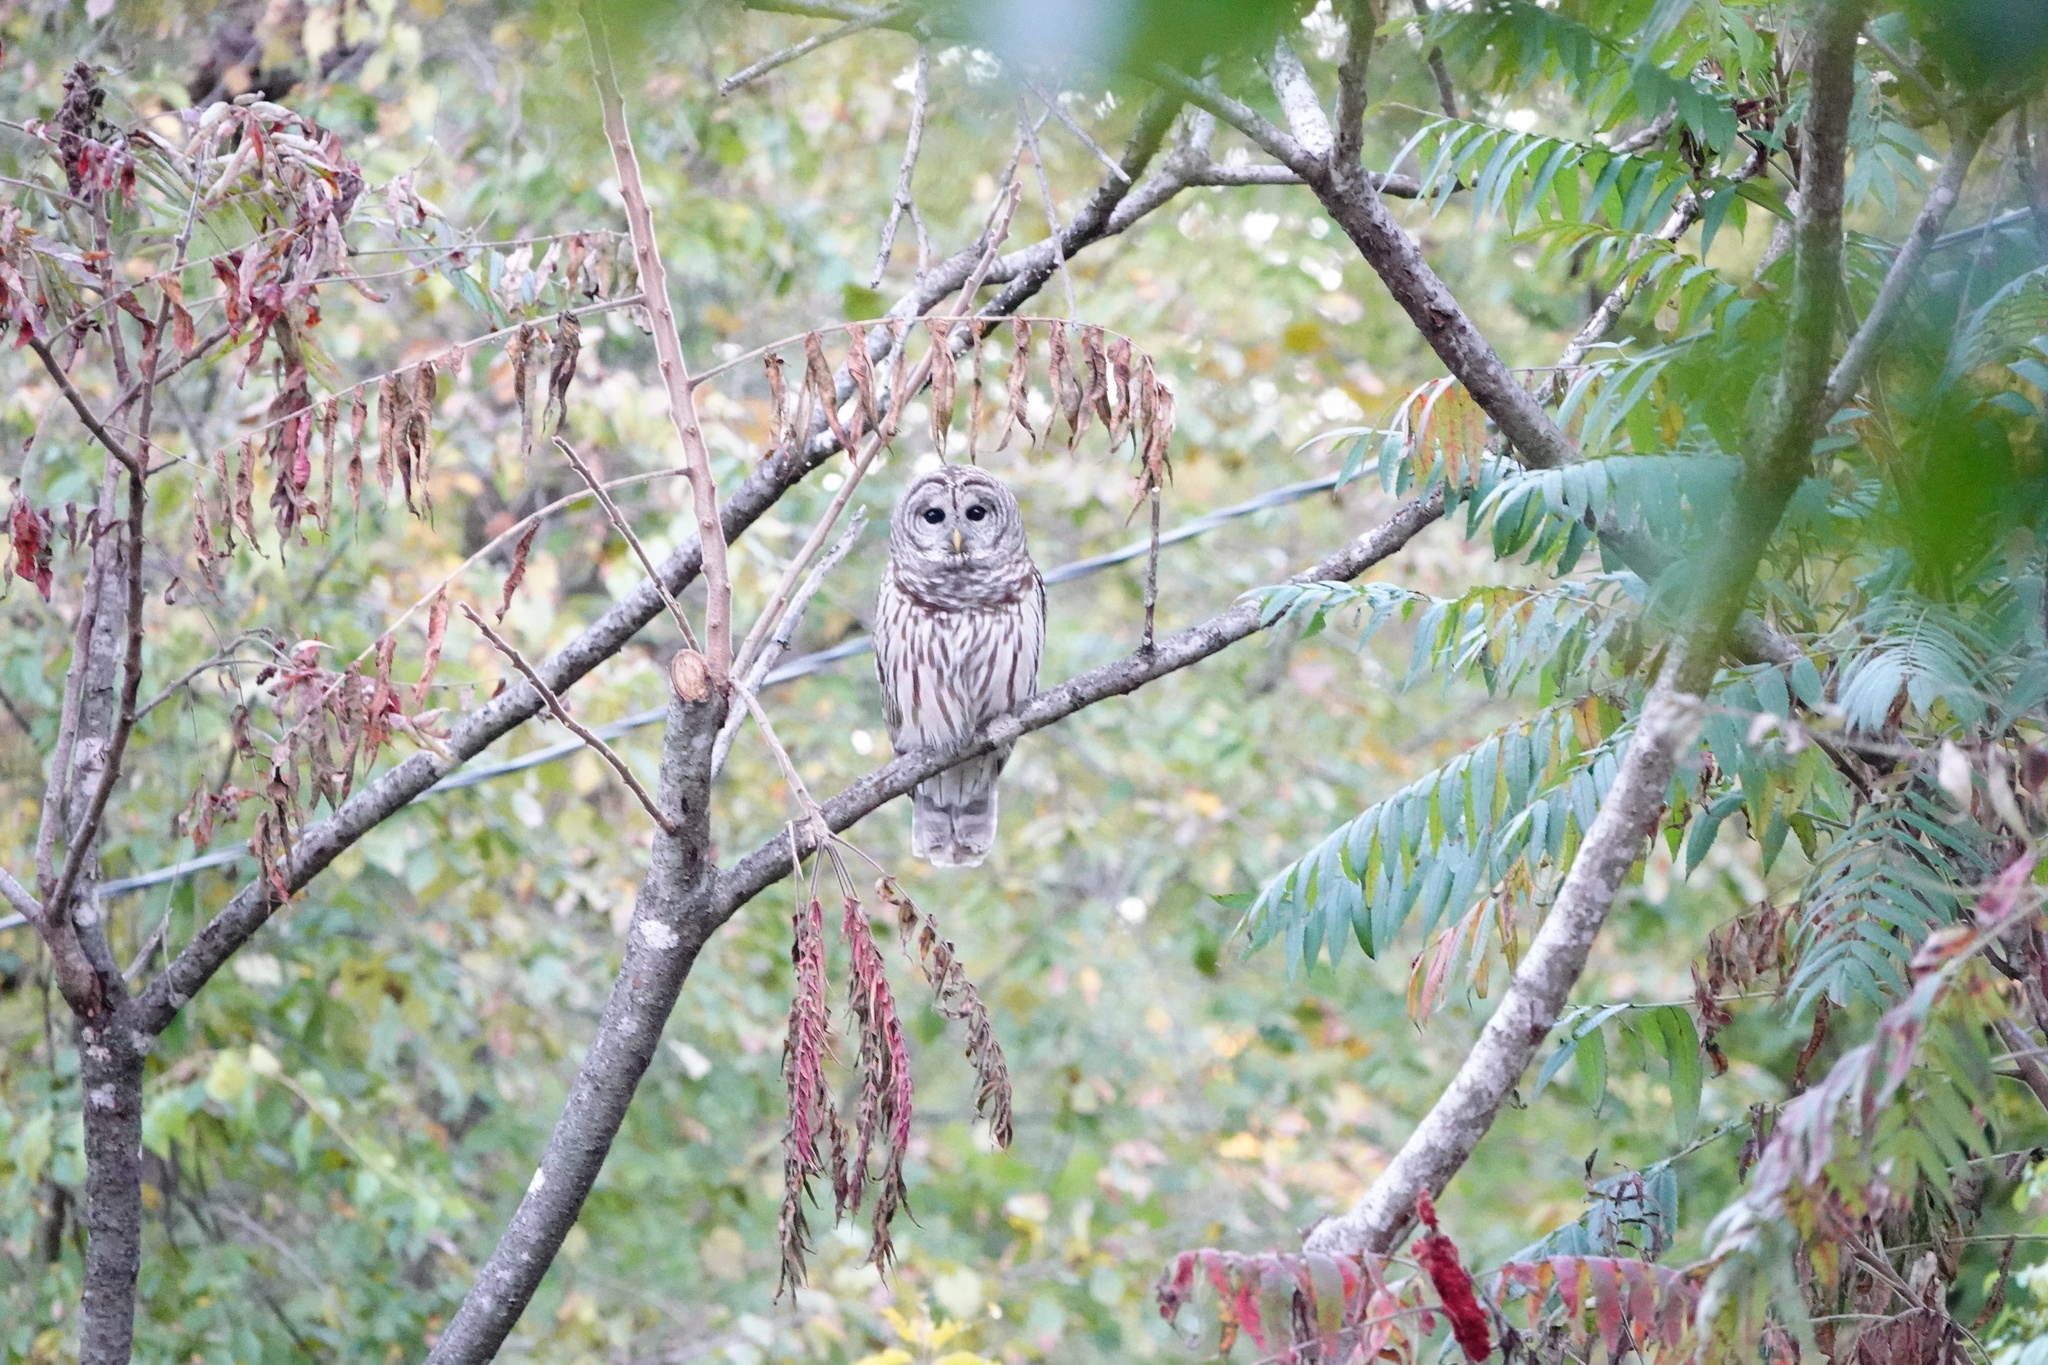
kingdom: Animalia
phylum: Chordata
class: Aves
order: Strigiformes
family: Strigidae
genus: Strix
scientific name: Strix varia
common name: Barred owl
